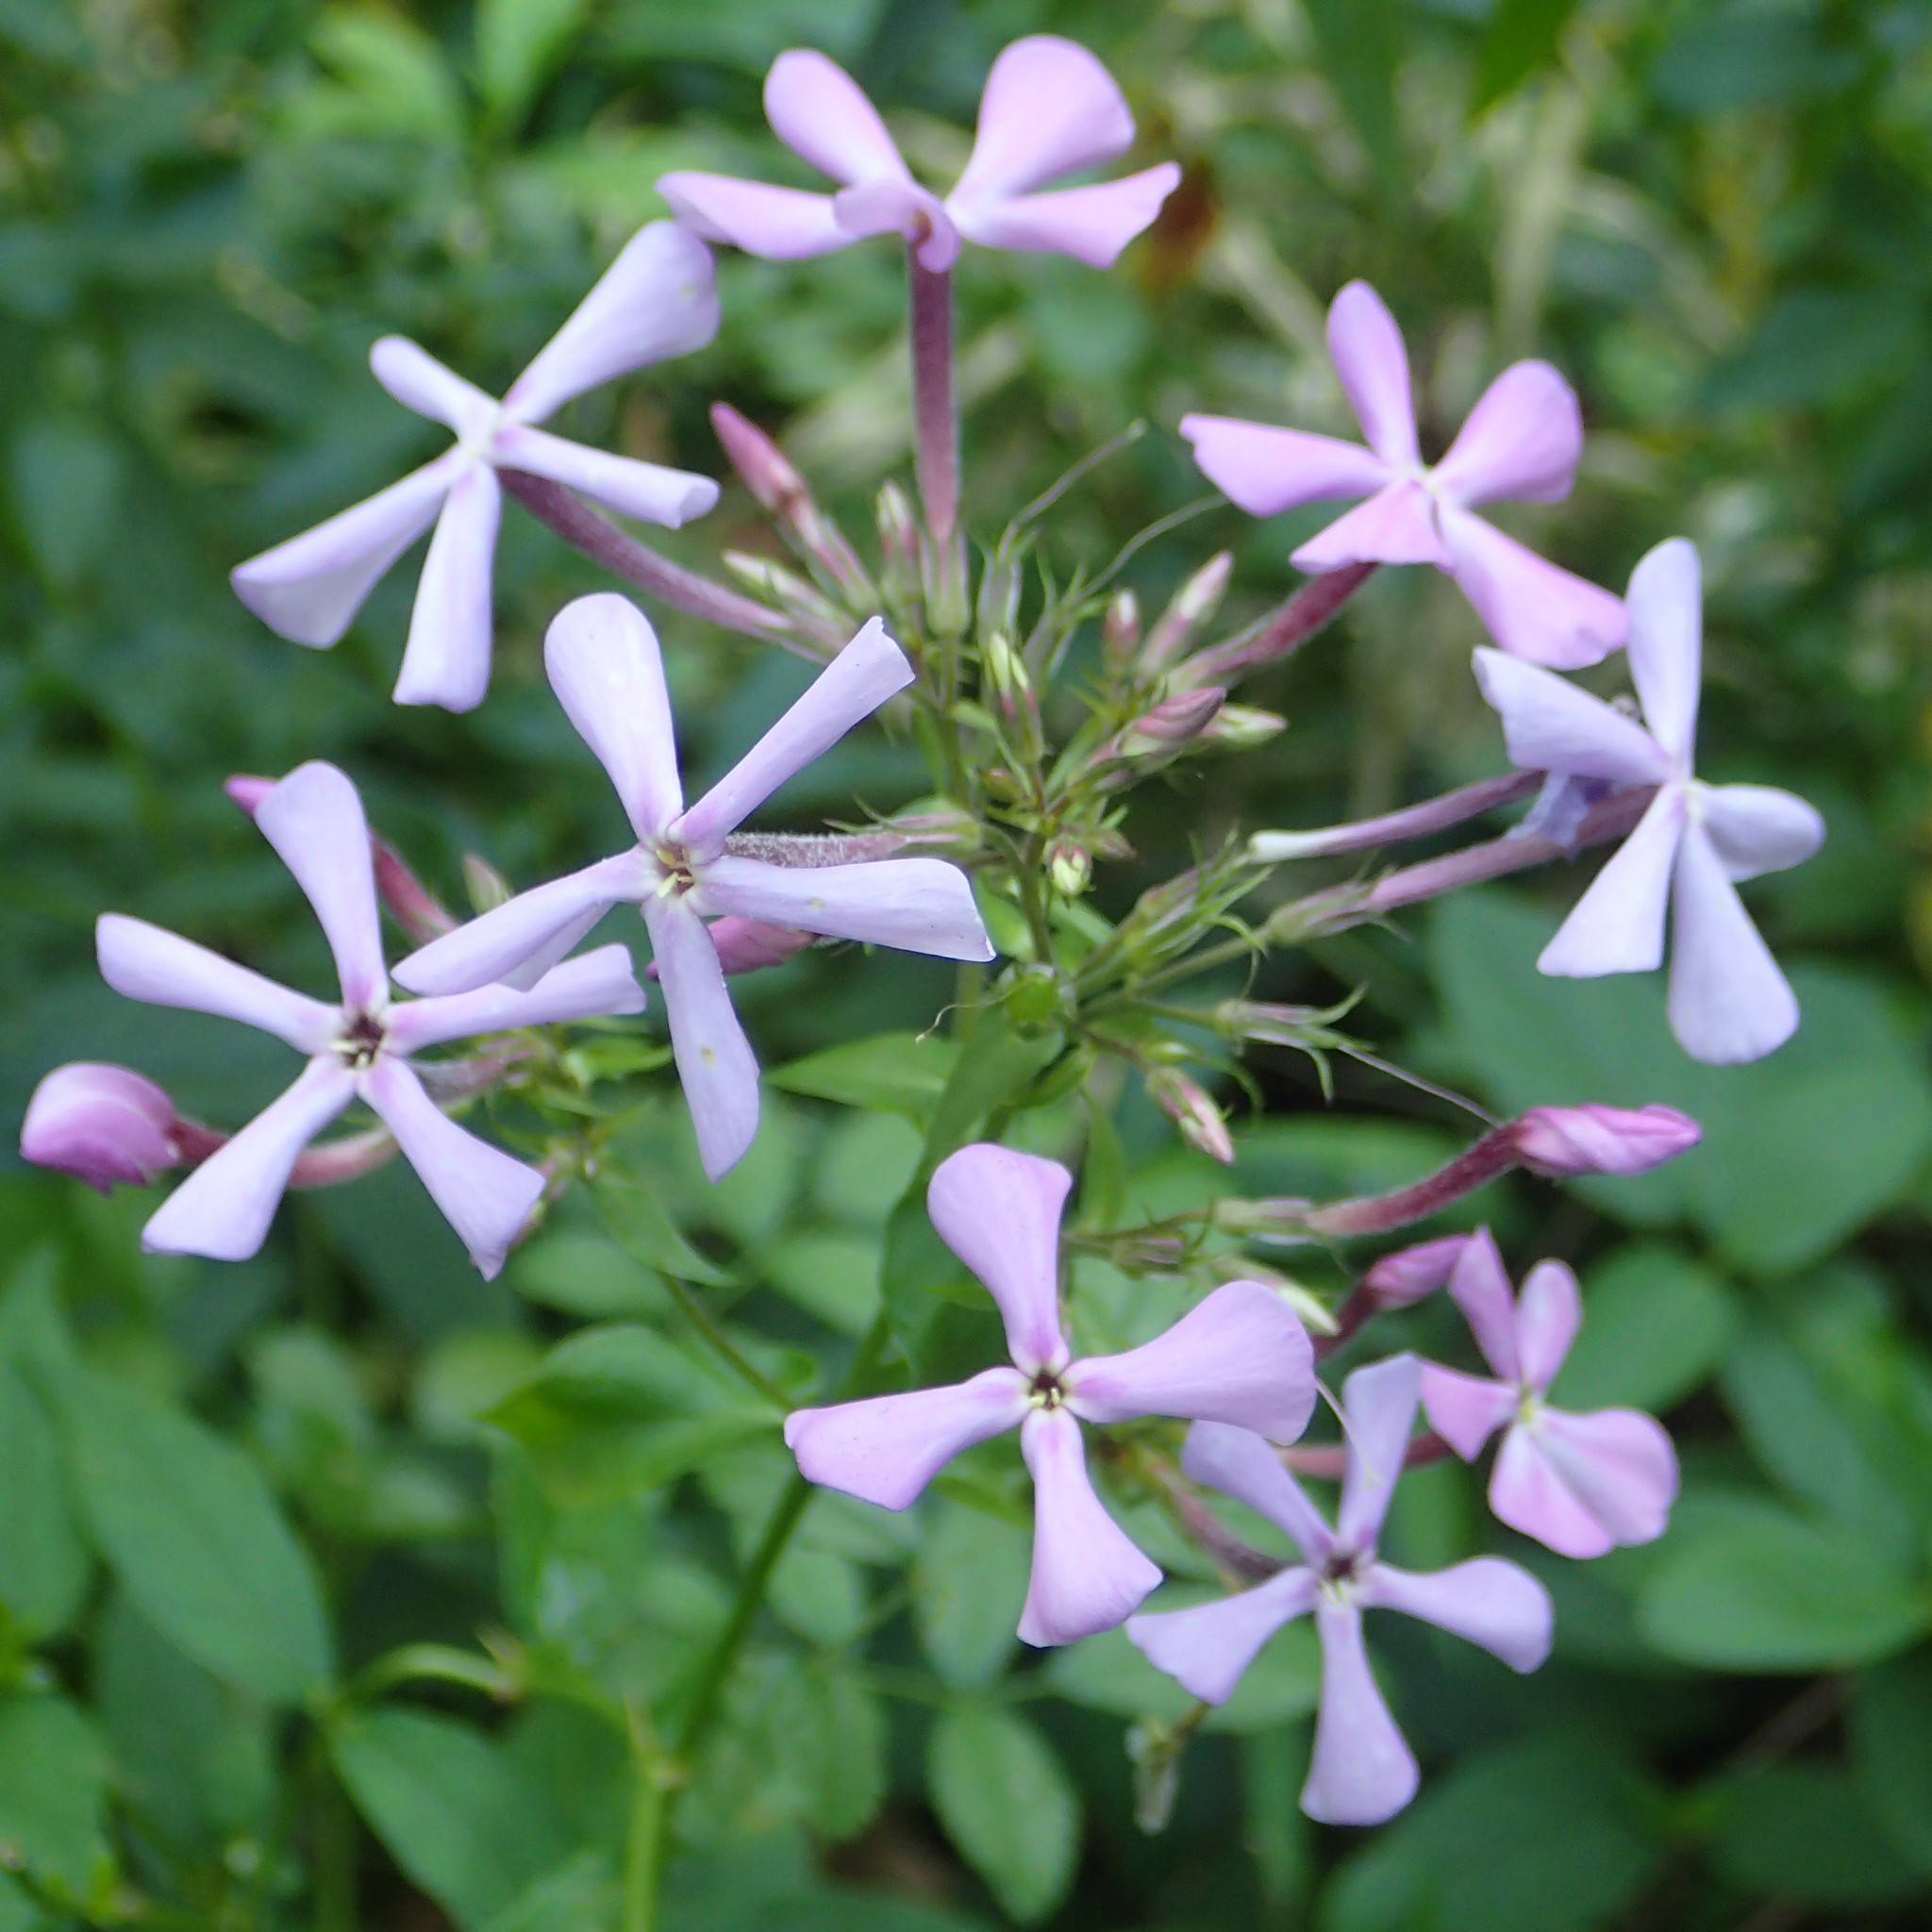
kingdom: Plantae
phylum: Tracheophyta
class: Magnoliopsida
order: Ericales
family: Polemoniaceae
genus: Phlox
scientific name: Phlox paniculata
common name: Fall phlox
